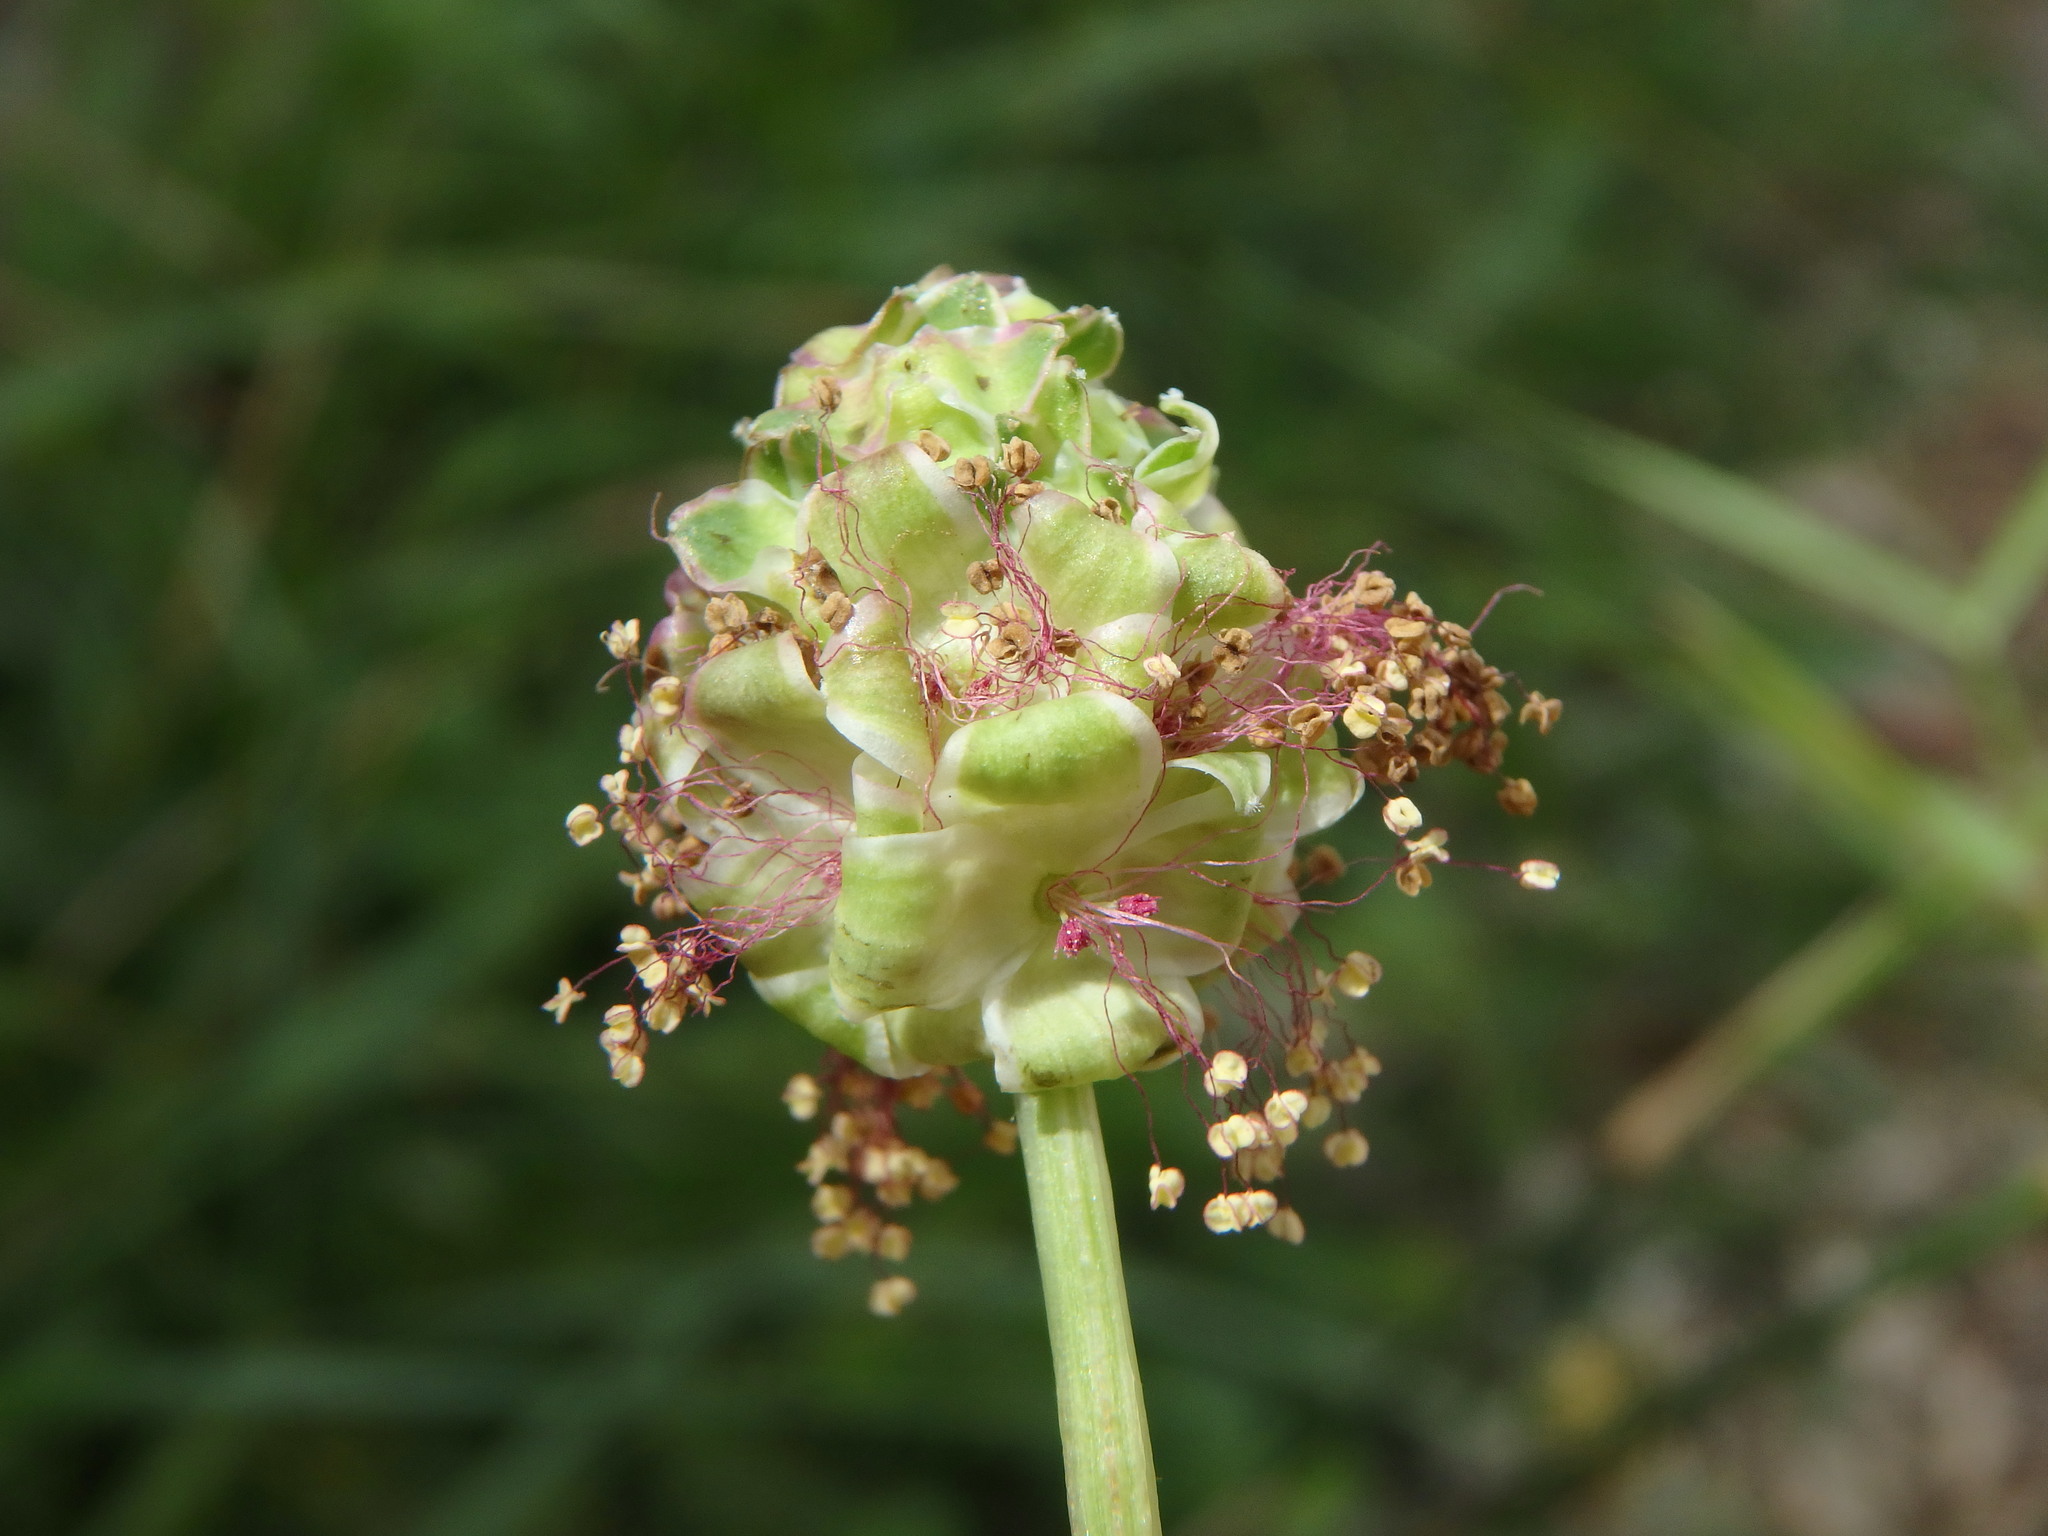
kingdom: Plantae
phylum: Tracheophyta
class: Magnoliopsida
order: Rosales
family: Rosaceae
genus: Poterium
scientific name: Poterium sanguisorba
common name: Salad burnet
